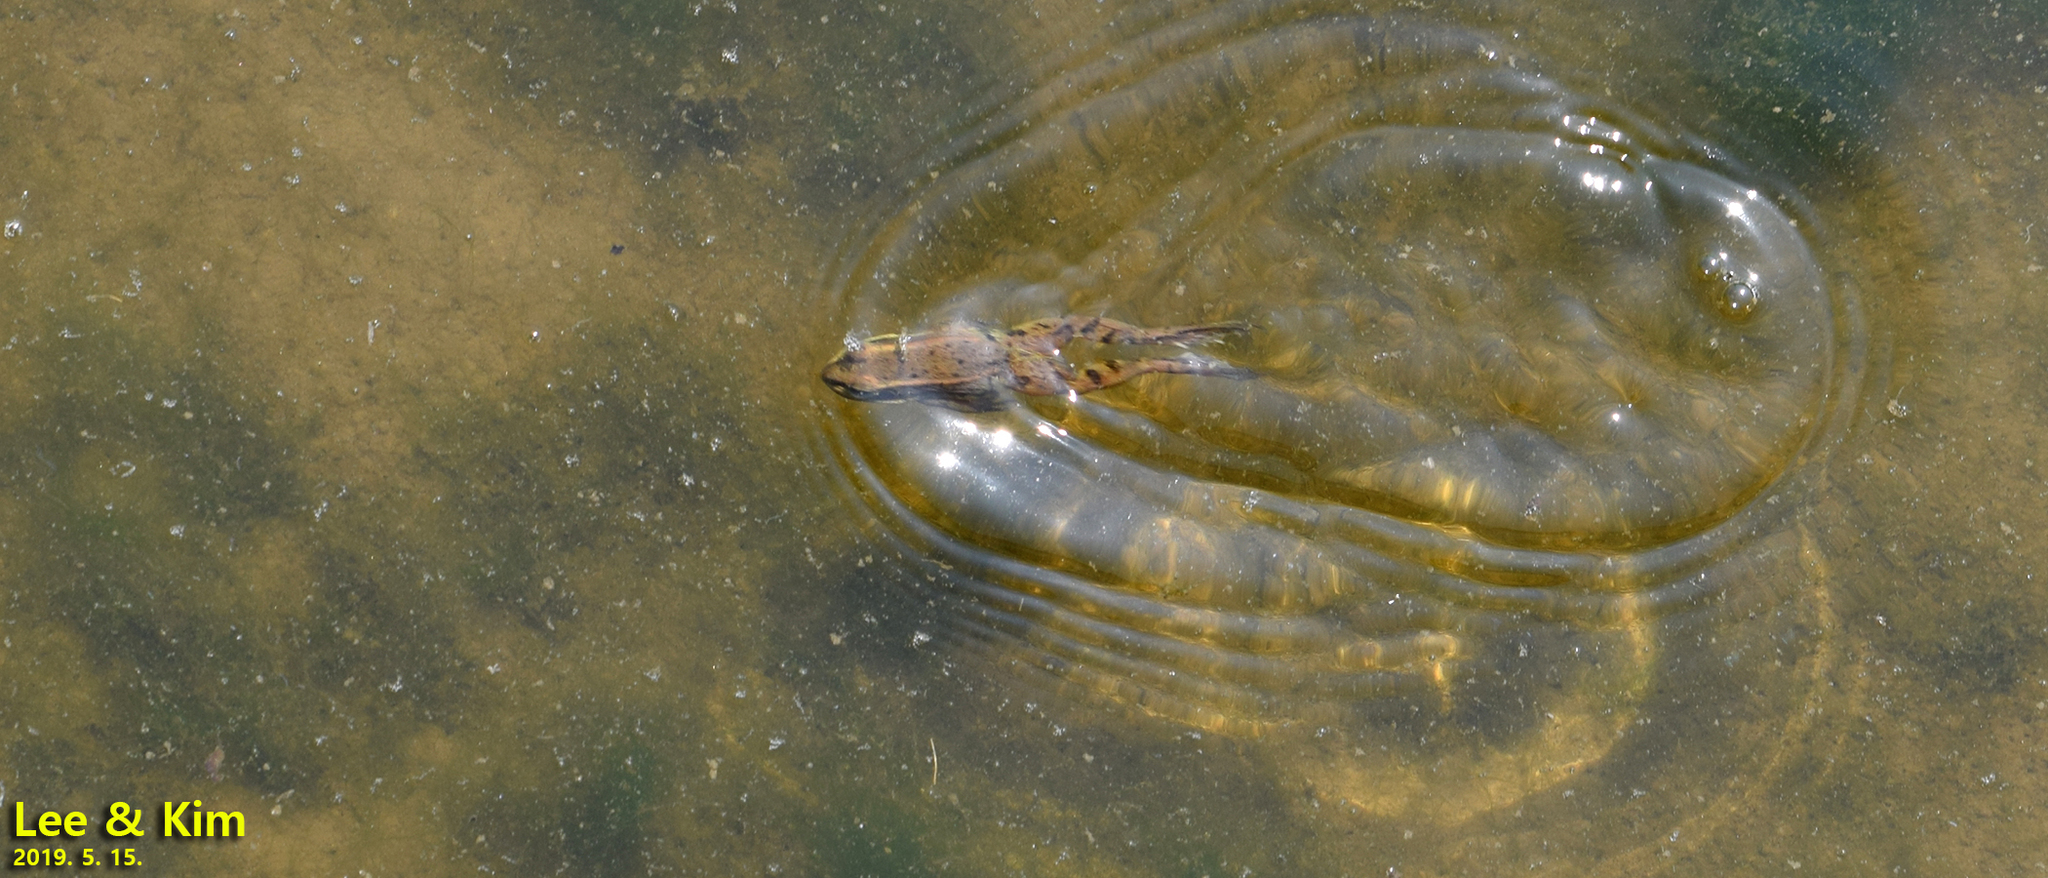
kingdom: Animalia
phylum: Chordata
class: Amphibia
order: Anura
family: Ranidae
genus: Pelophylax
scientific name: Pelophylax chosenicus
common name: Gold-spotted pond frog
